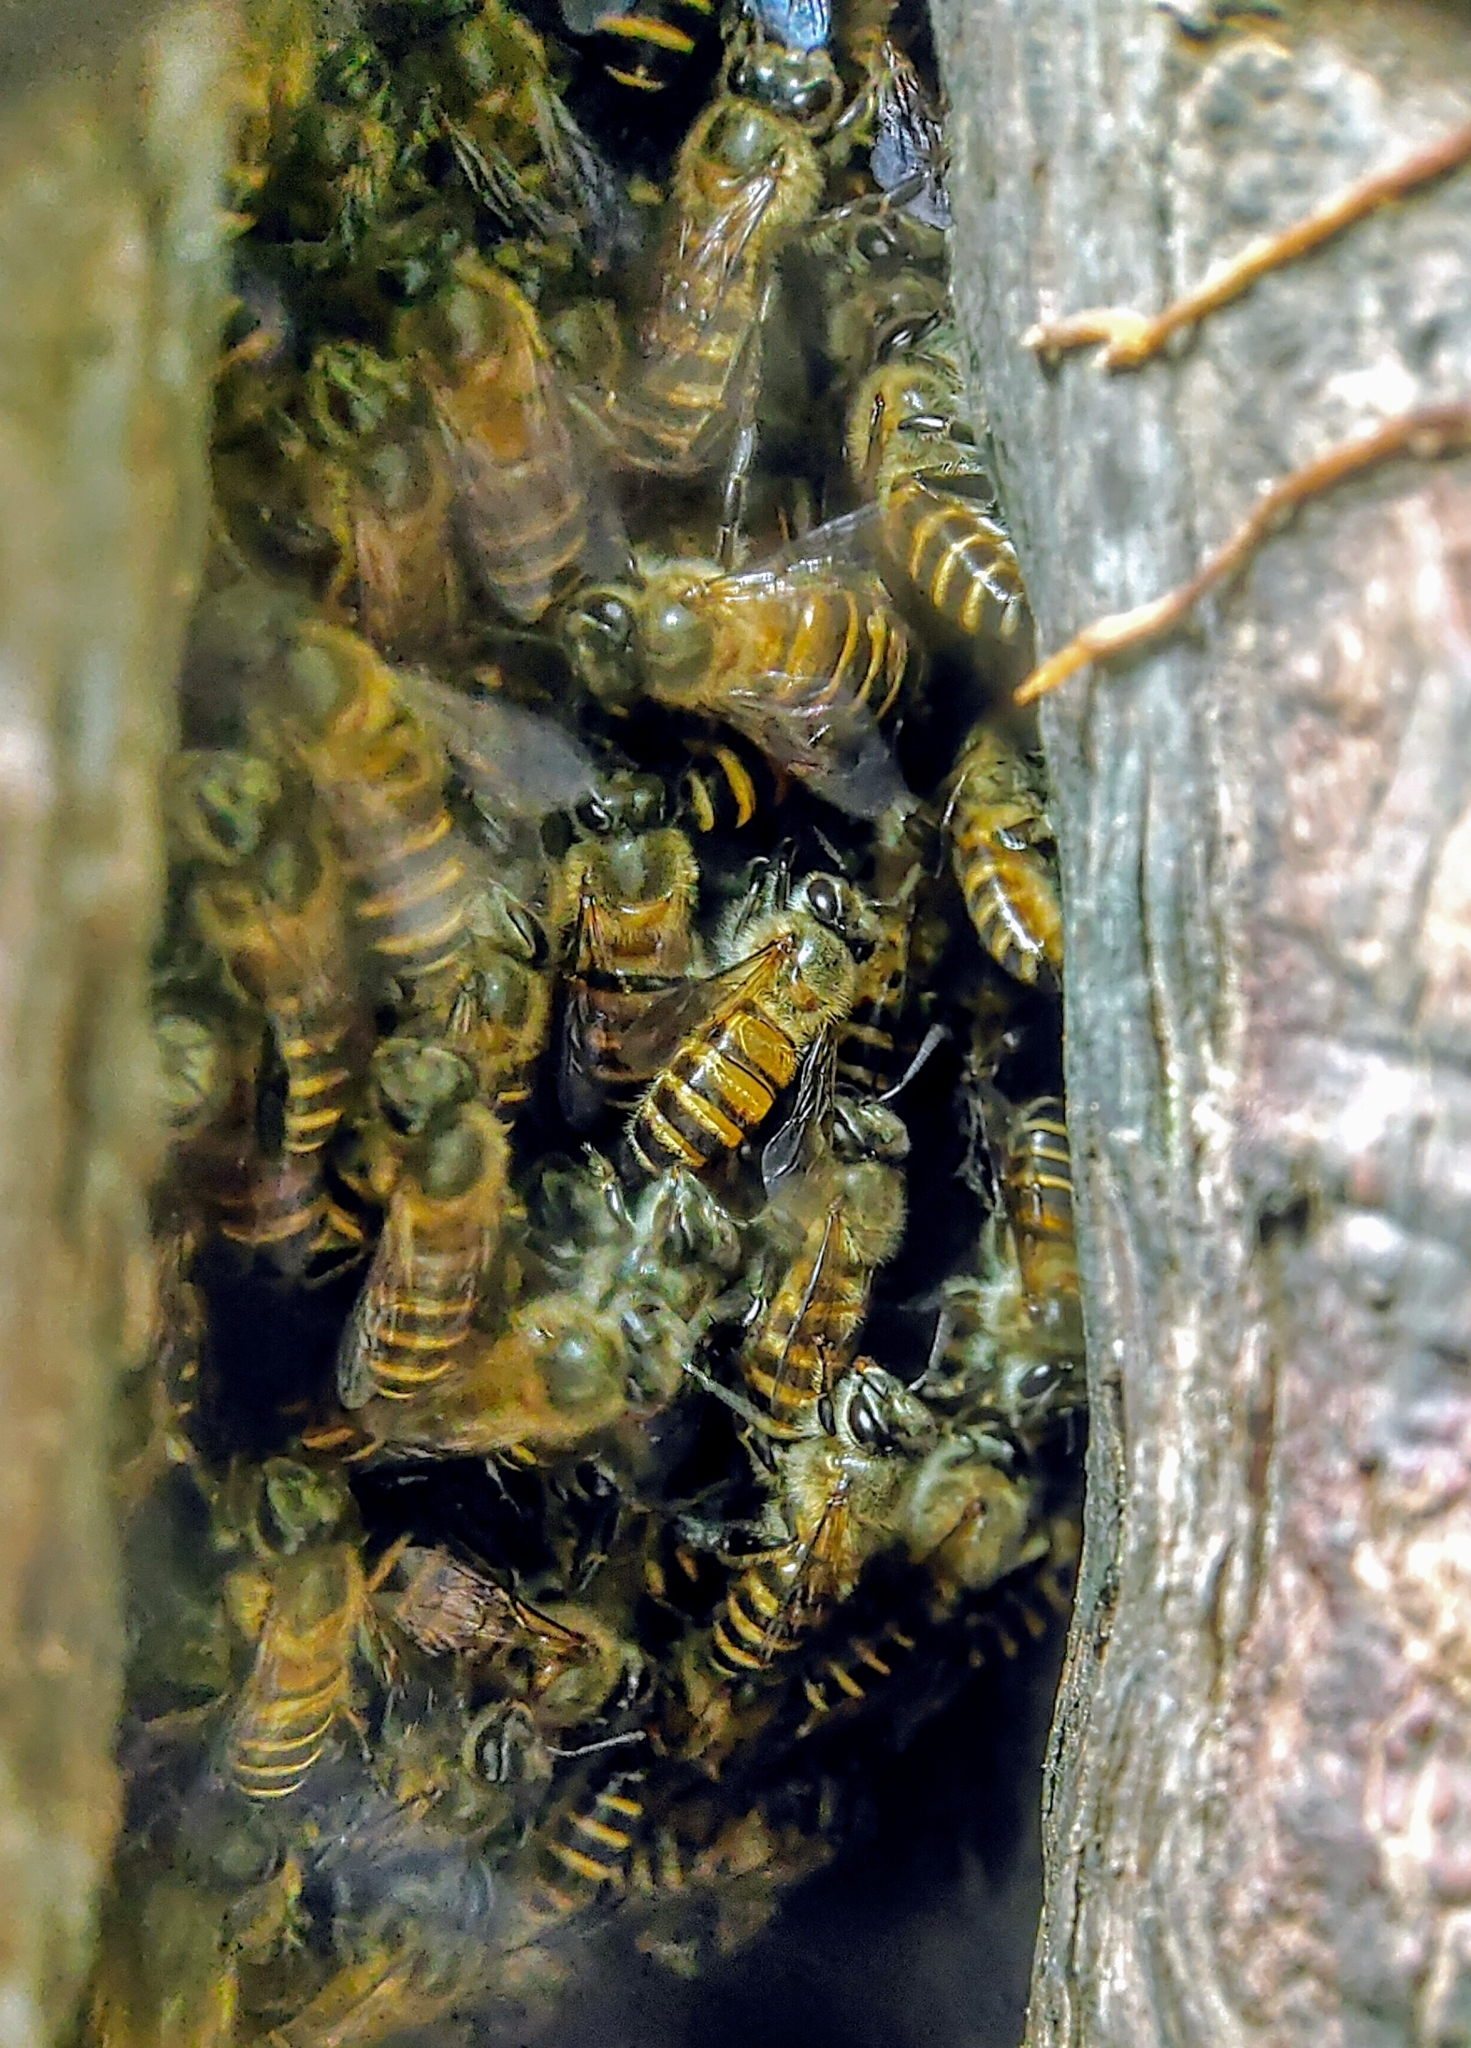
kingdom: Animalia
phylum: Arthropoda
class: Insecta
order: Hymenoptera
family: Apidae
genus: Apis
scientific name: Apis cerana
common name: Honey bee
